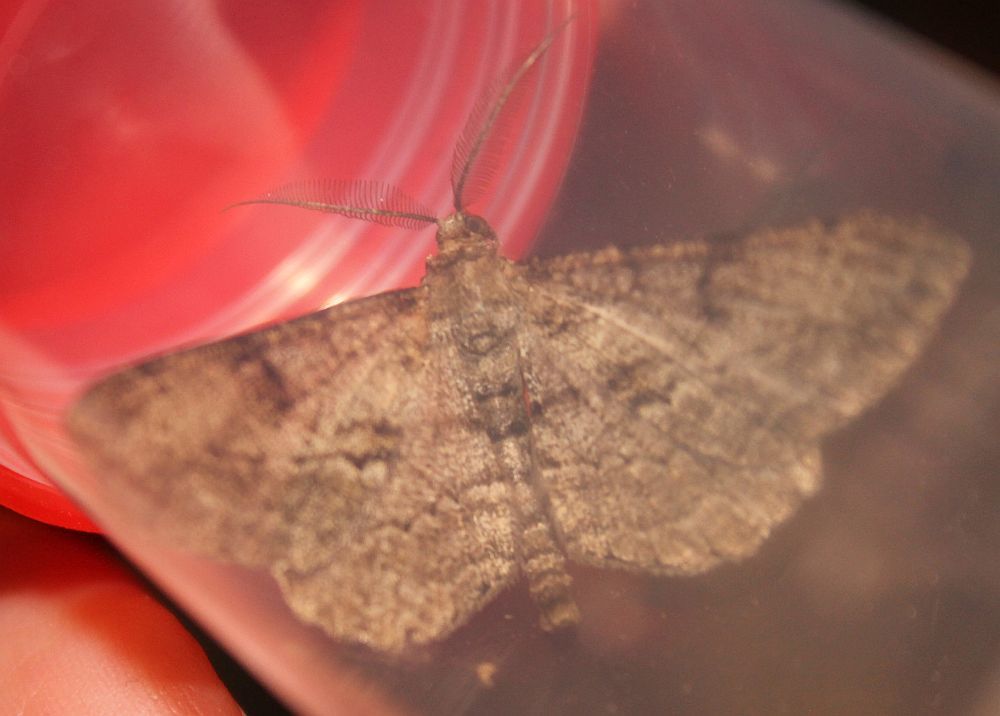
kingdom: Animalia
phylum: Arthropoda
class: Insecta
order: Lepidoptera
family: Geometridae
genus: Peribatodes
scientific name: Peribatodes rhomboidaria
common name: Willow beauty
